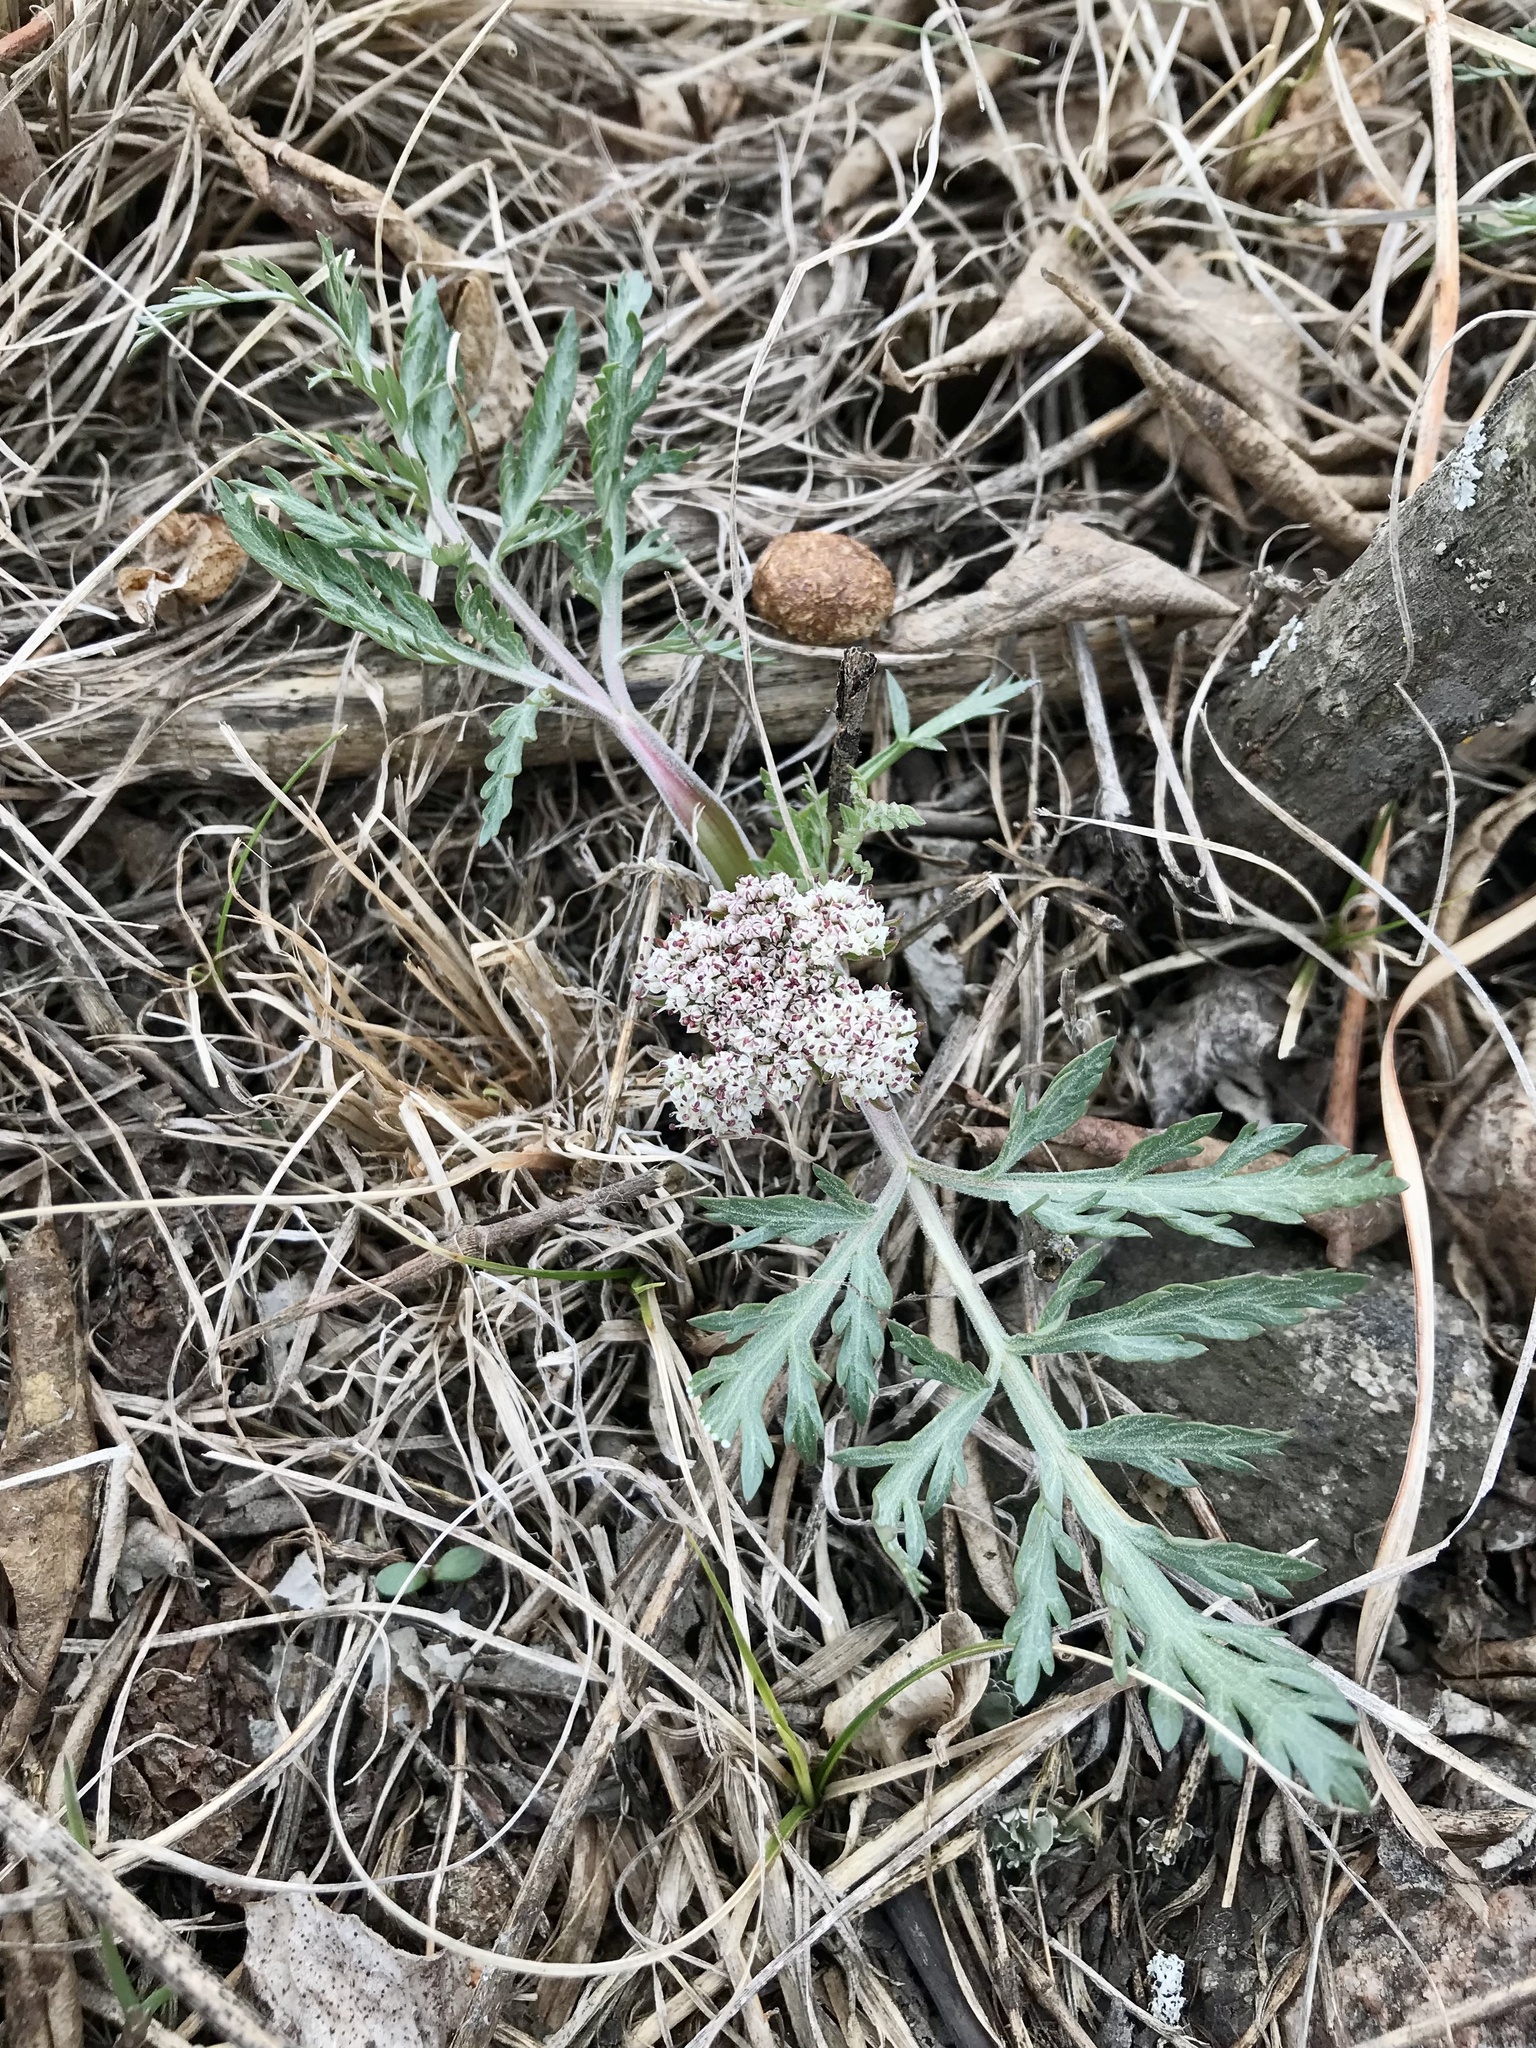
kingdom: Plantae
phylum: Tracheophyta
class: Magnoliopsida
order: Apiales
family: Apiaceae
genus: Lomatium
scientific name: Lomatium orientale
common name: Eastern cous
